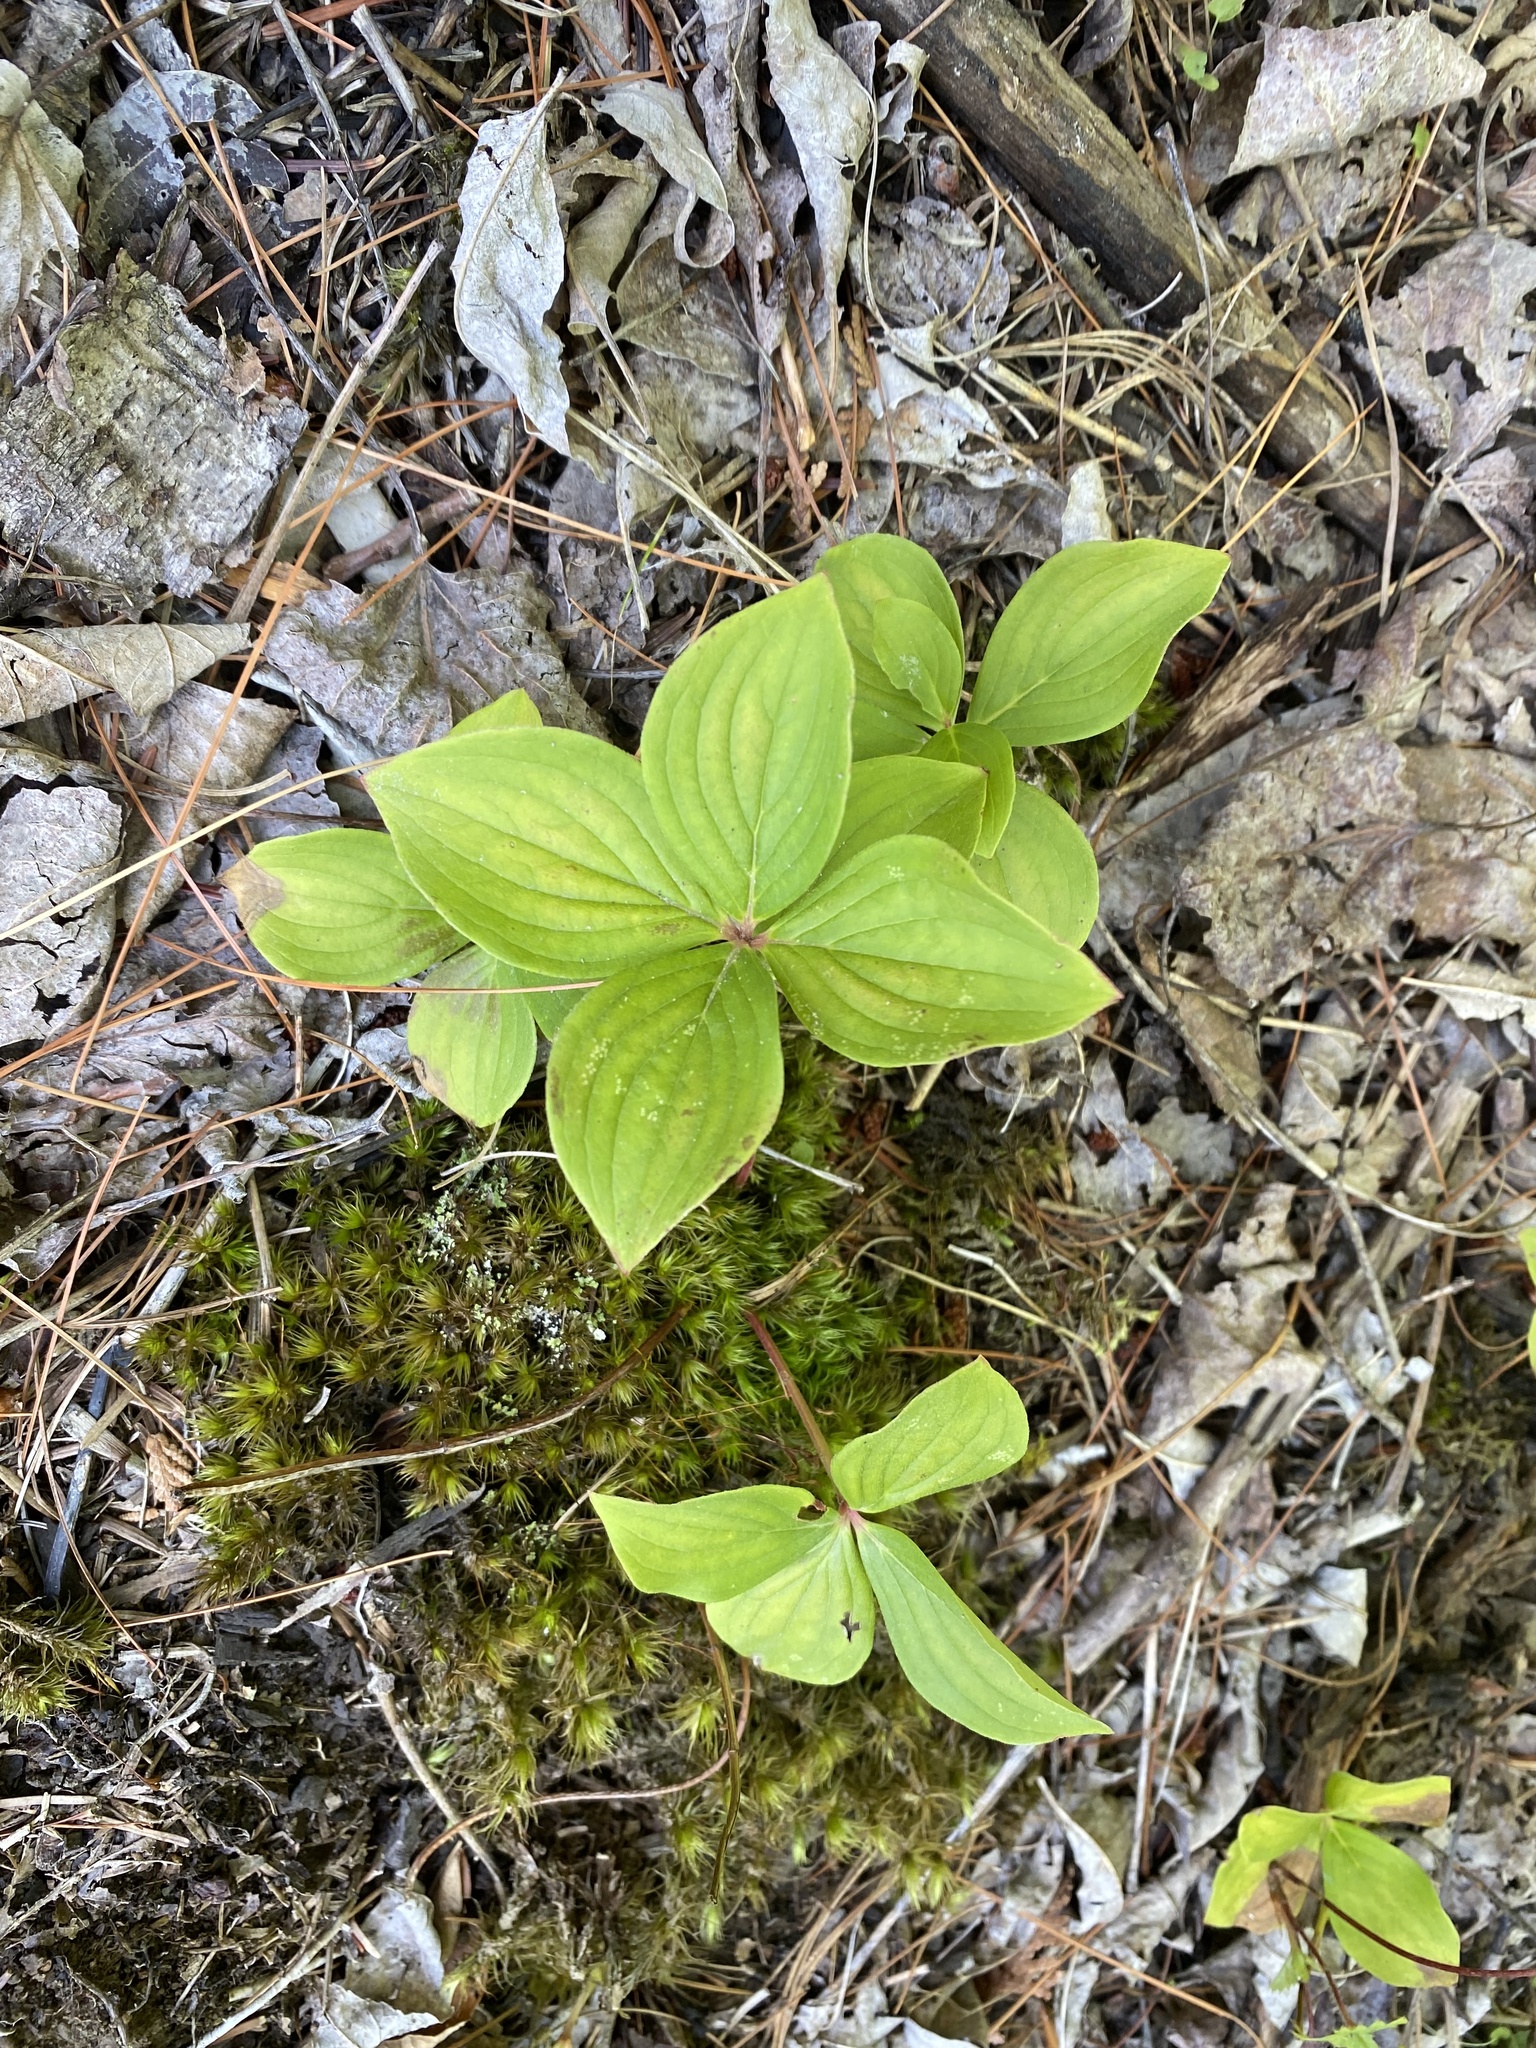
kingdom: Plantae
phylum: Tracheophyta
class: Magnoliopsida
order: Cornales
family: Cornaceae
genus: Cornus
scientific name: Cornus canadensis
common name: Creeping dogwood
